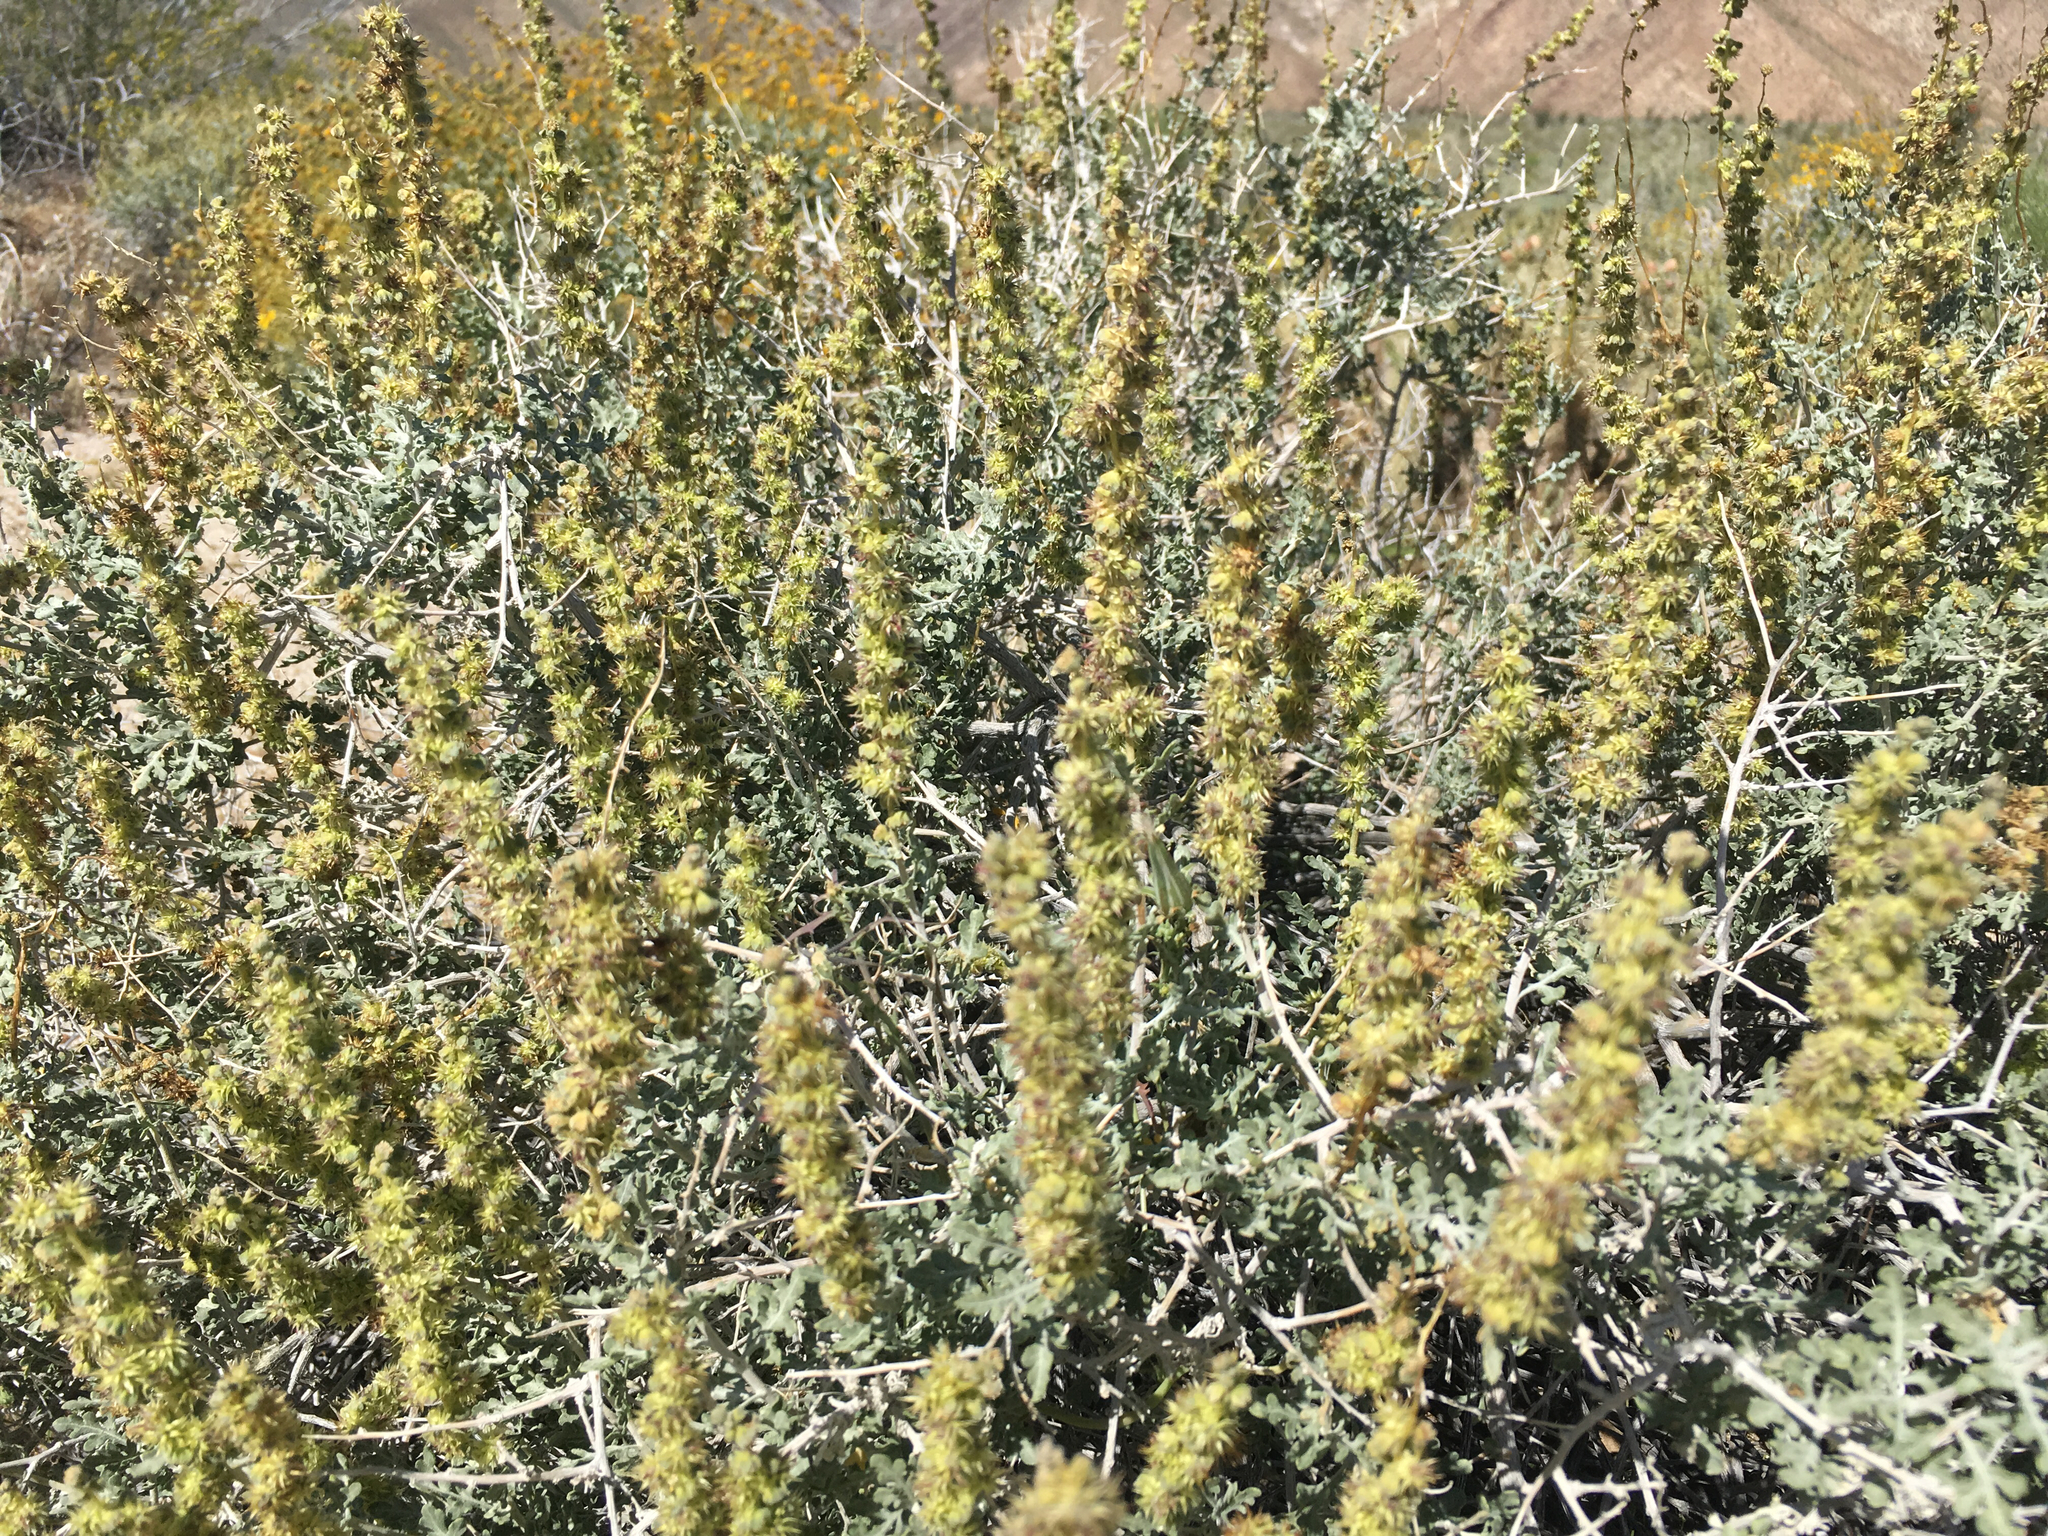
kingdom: Plantae
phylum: Tracheophyta
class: Magnoliopsida
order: Asterales
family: Asteraceae
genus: Ambrosia
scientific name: Ambrosia dumosa
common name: Bur-sage
